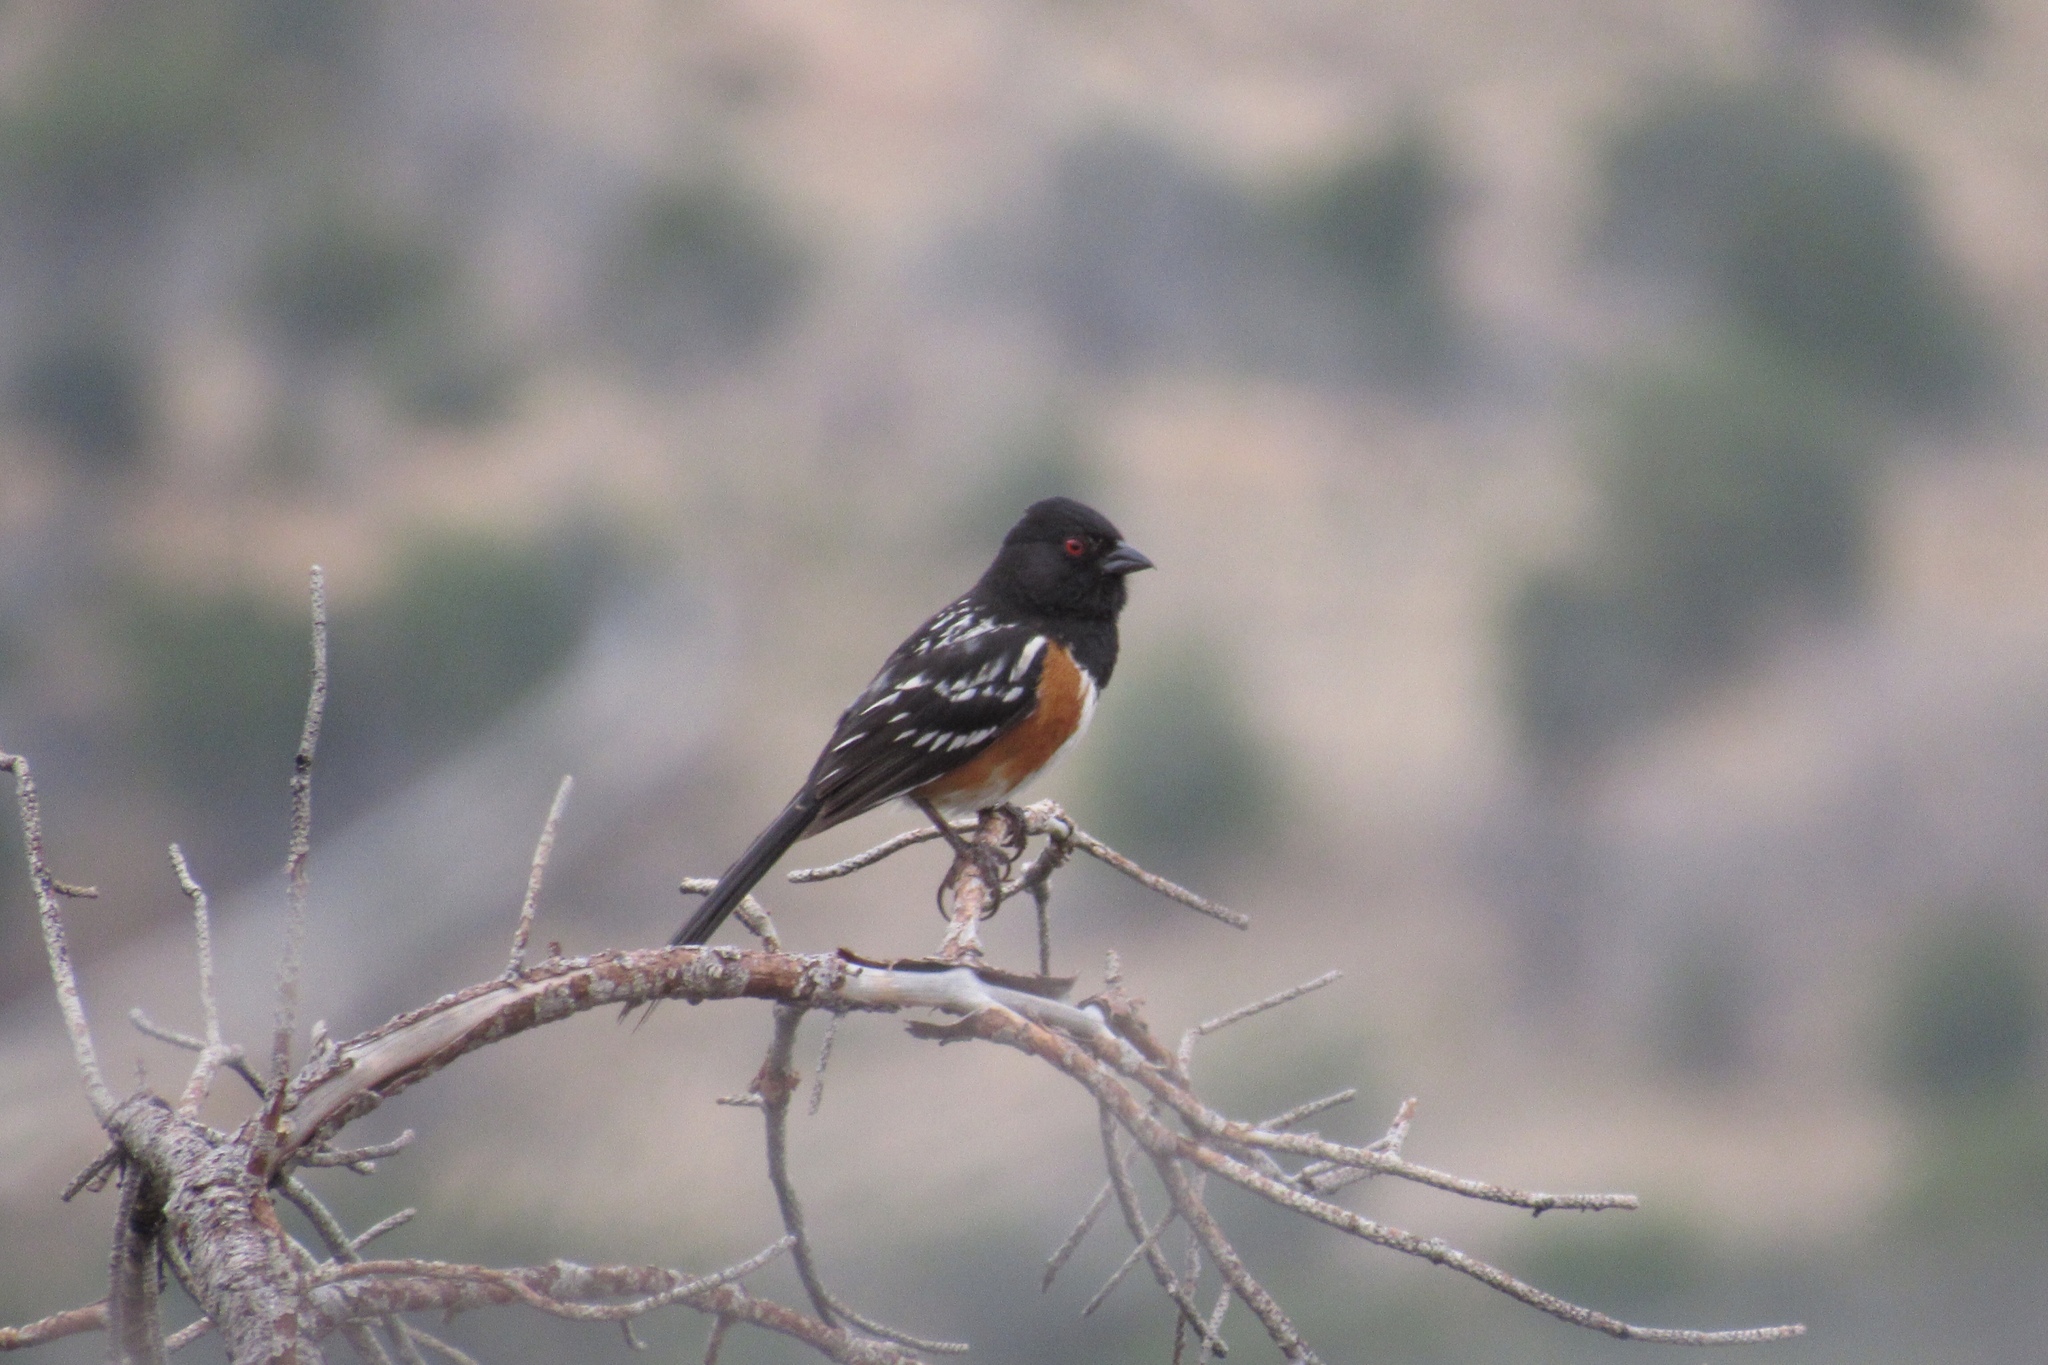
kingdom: Animalia
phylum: Chordata
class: Aves
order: Passeriformes
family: Passerellidae
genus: Pipilo
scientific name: Pipilo maculatus
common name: Spotted towhee
